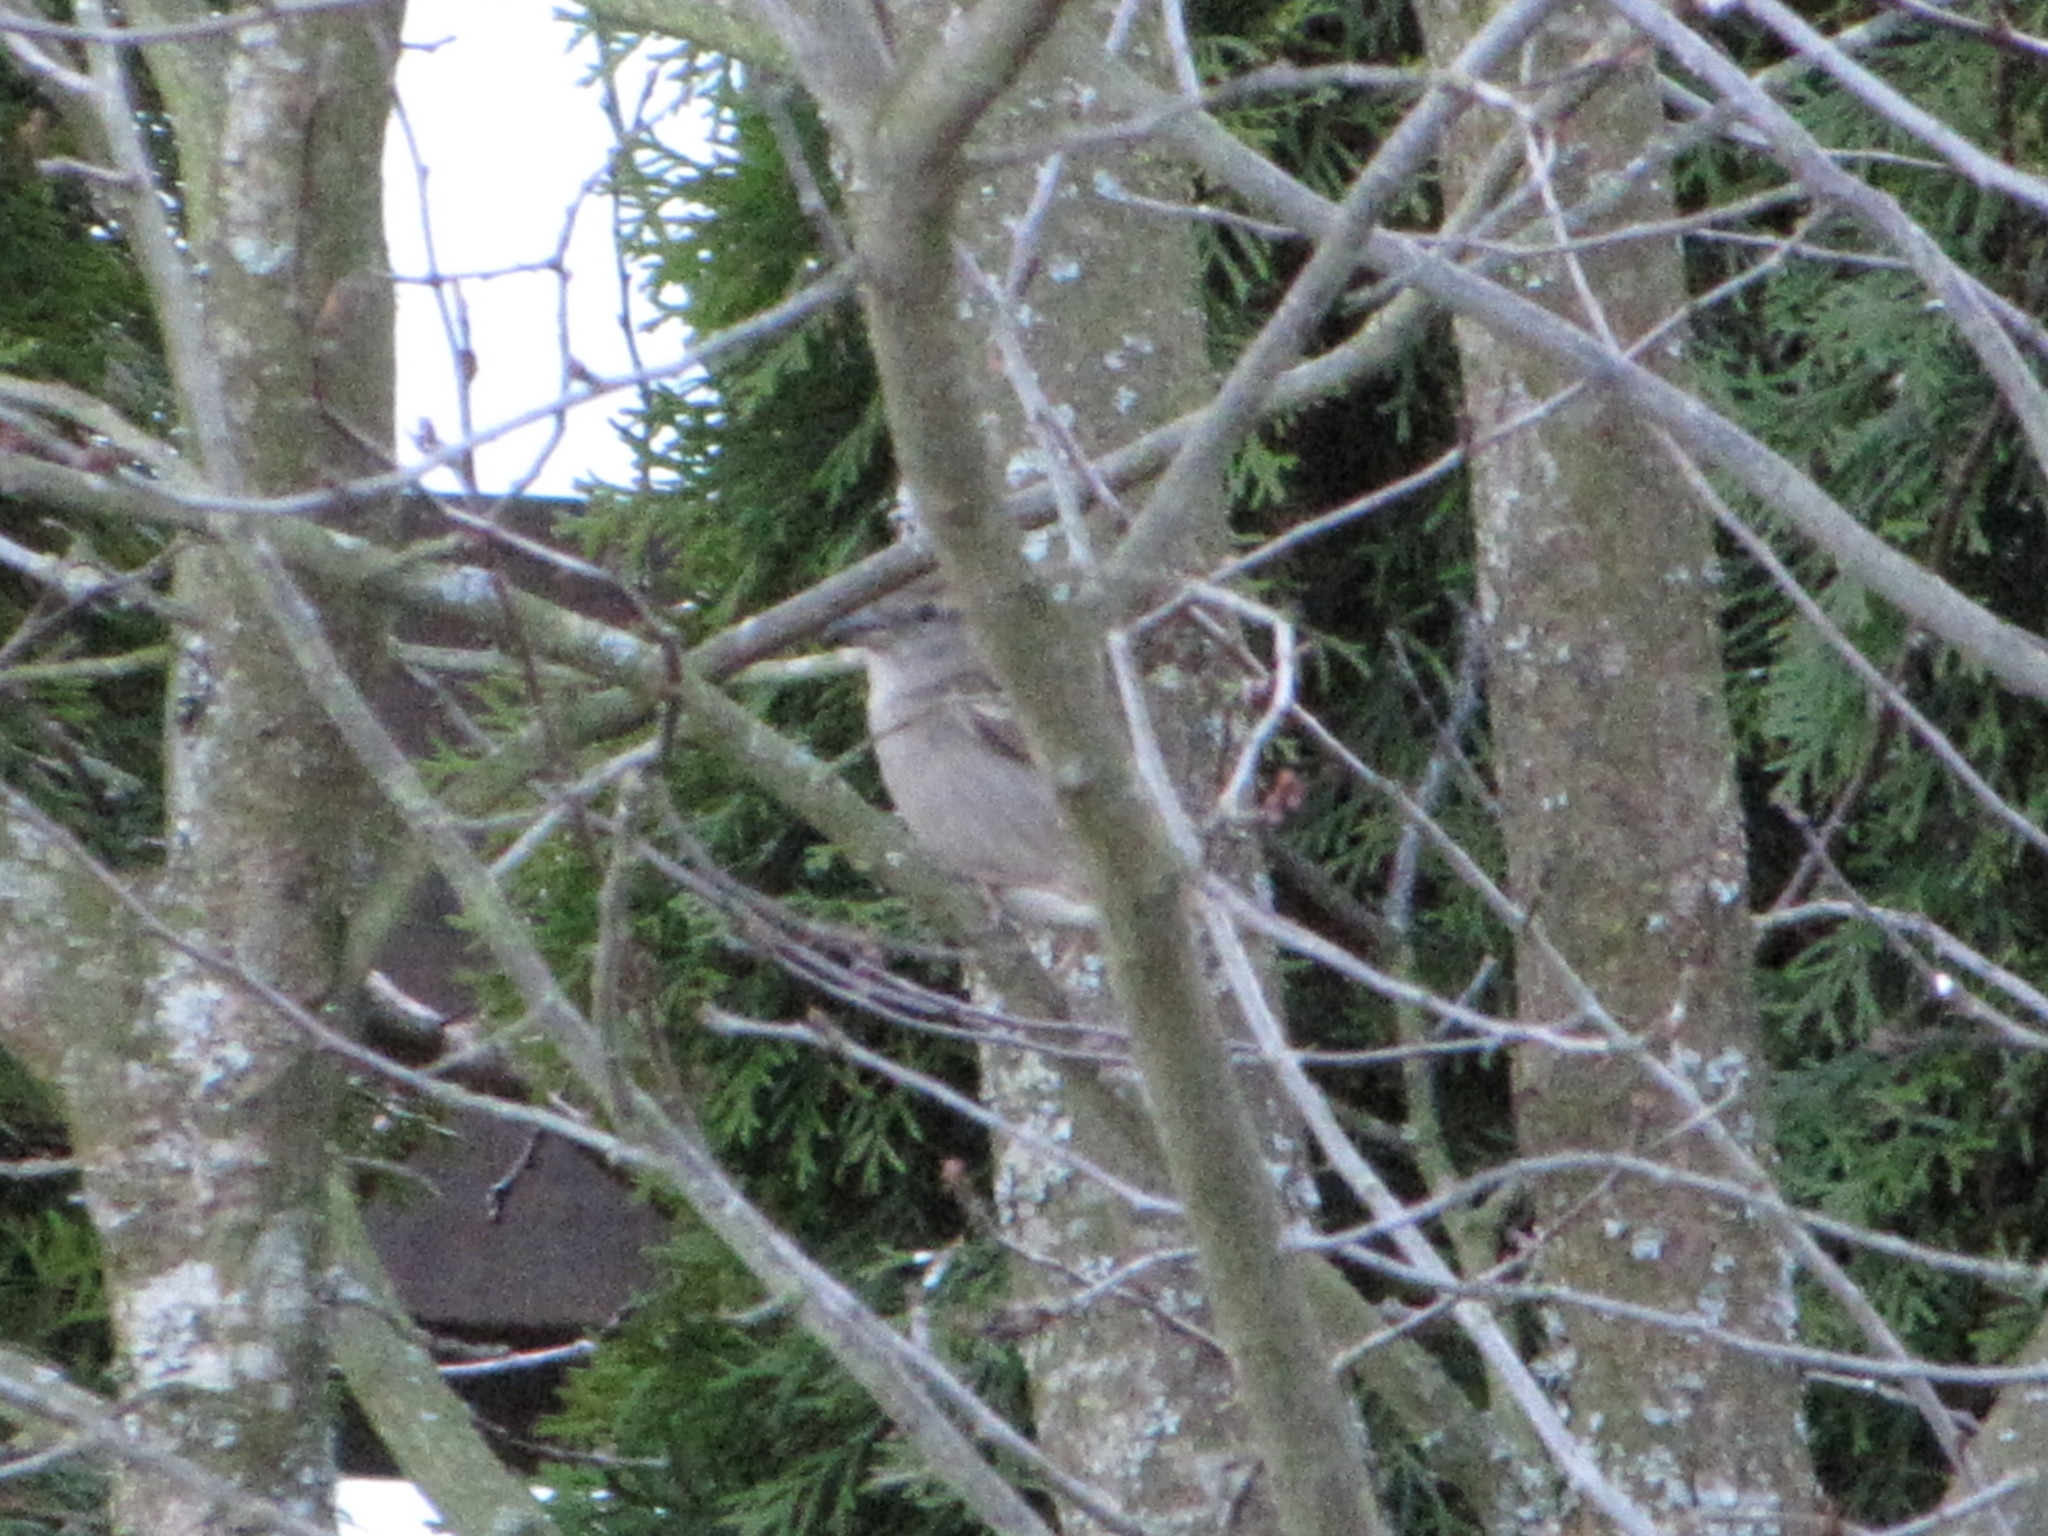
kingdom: Animalia
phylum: Chordata
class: Aves
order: Passeriformes
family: Passeridae
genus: Passer
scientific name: Passer domesticus
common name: House sparrow
